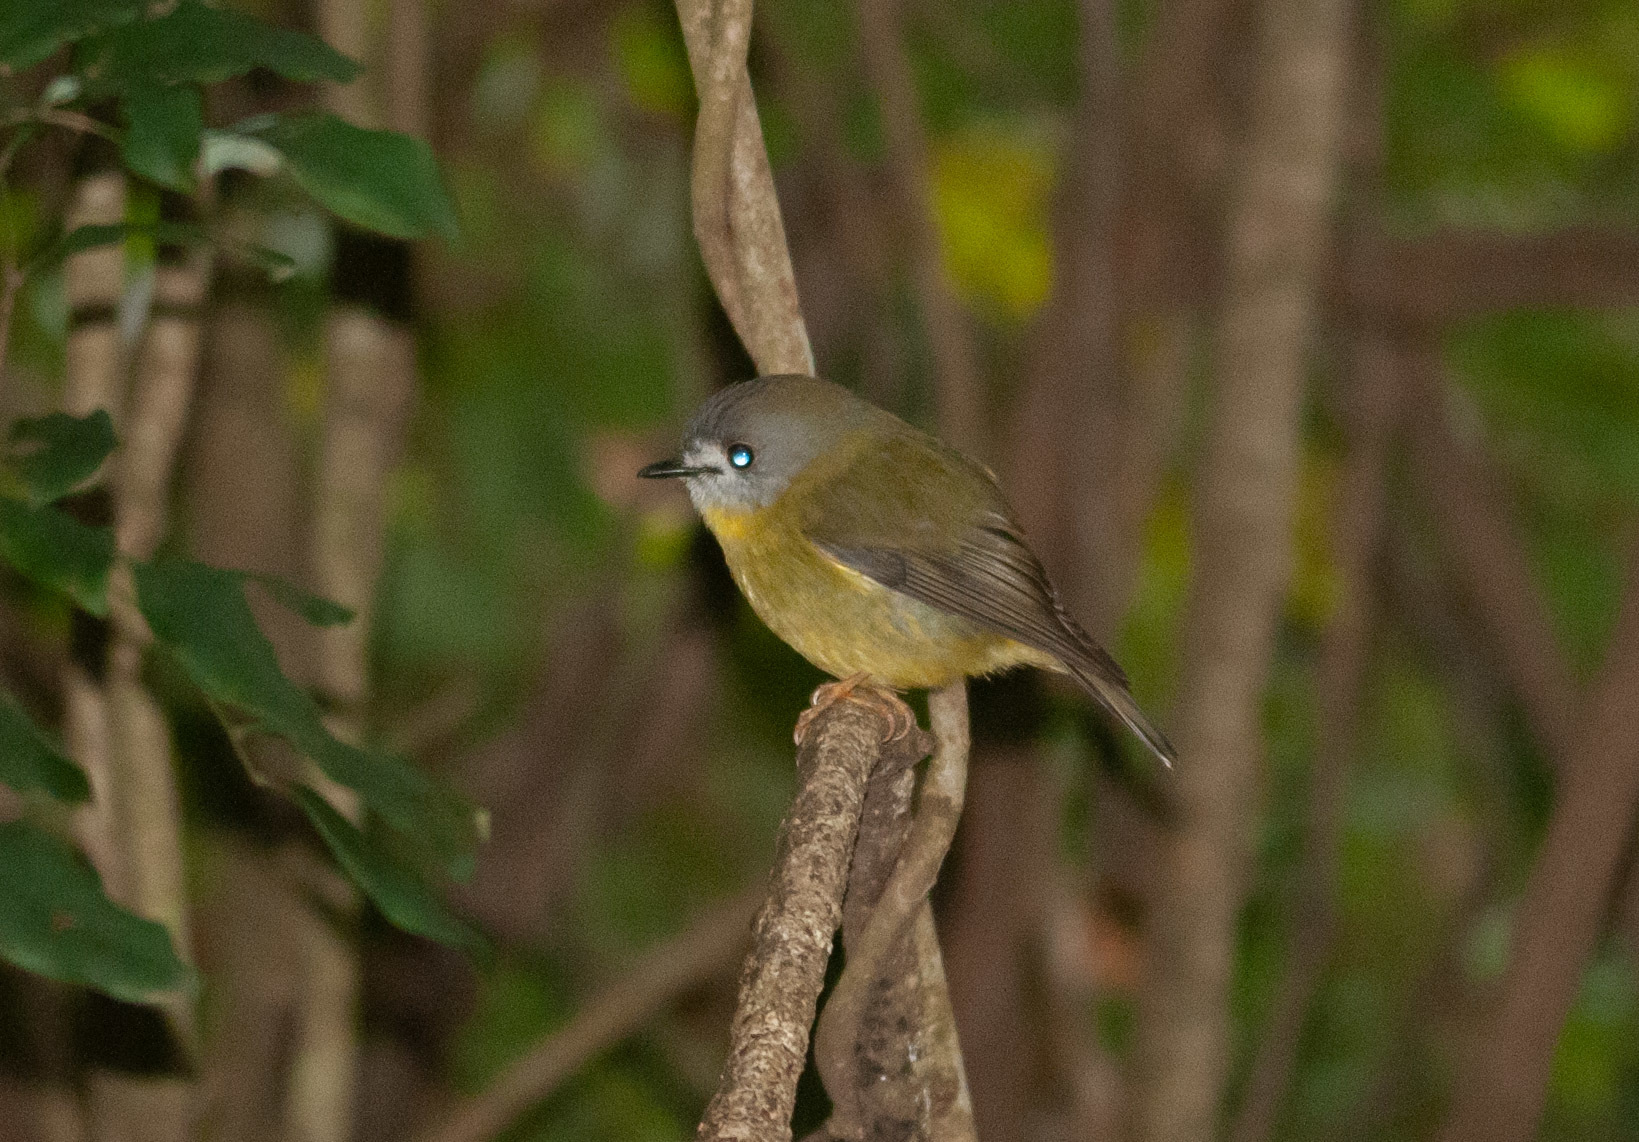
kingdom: Animalia
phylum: Chordata
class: Aves
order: Passeriformes
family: Petroicidae
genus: Eopsaltria
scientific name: Eopsaltria
